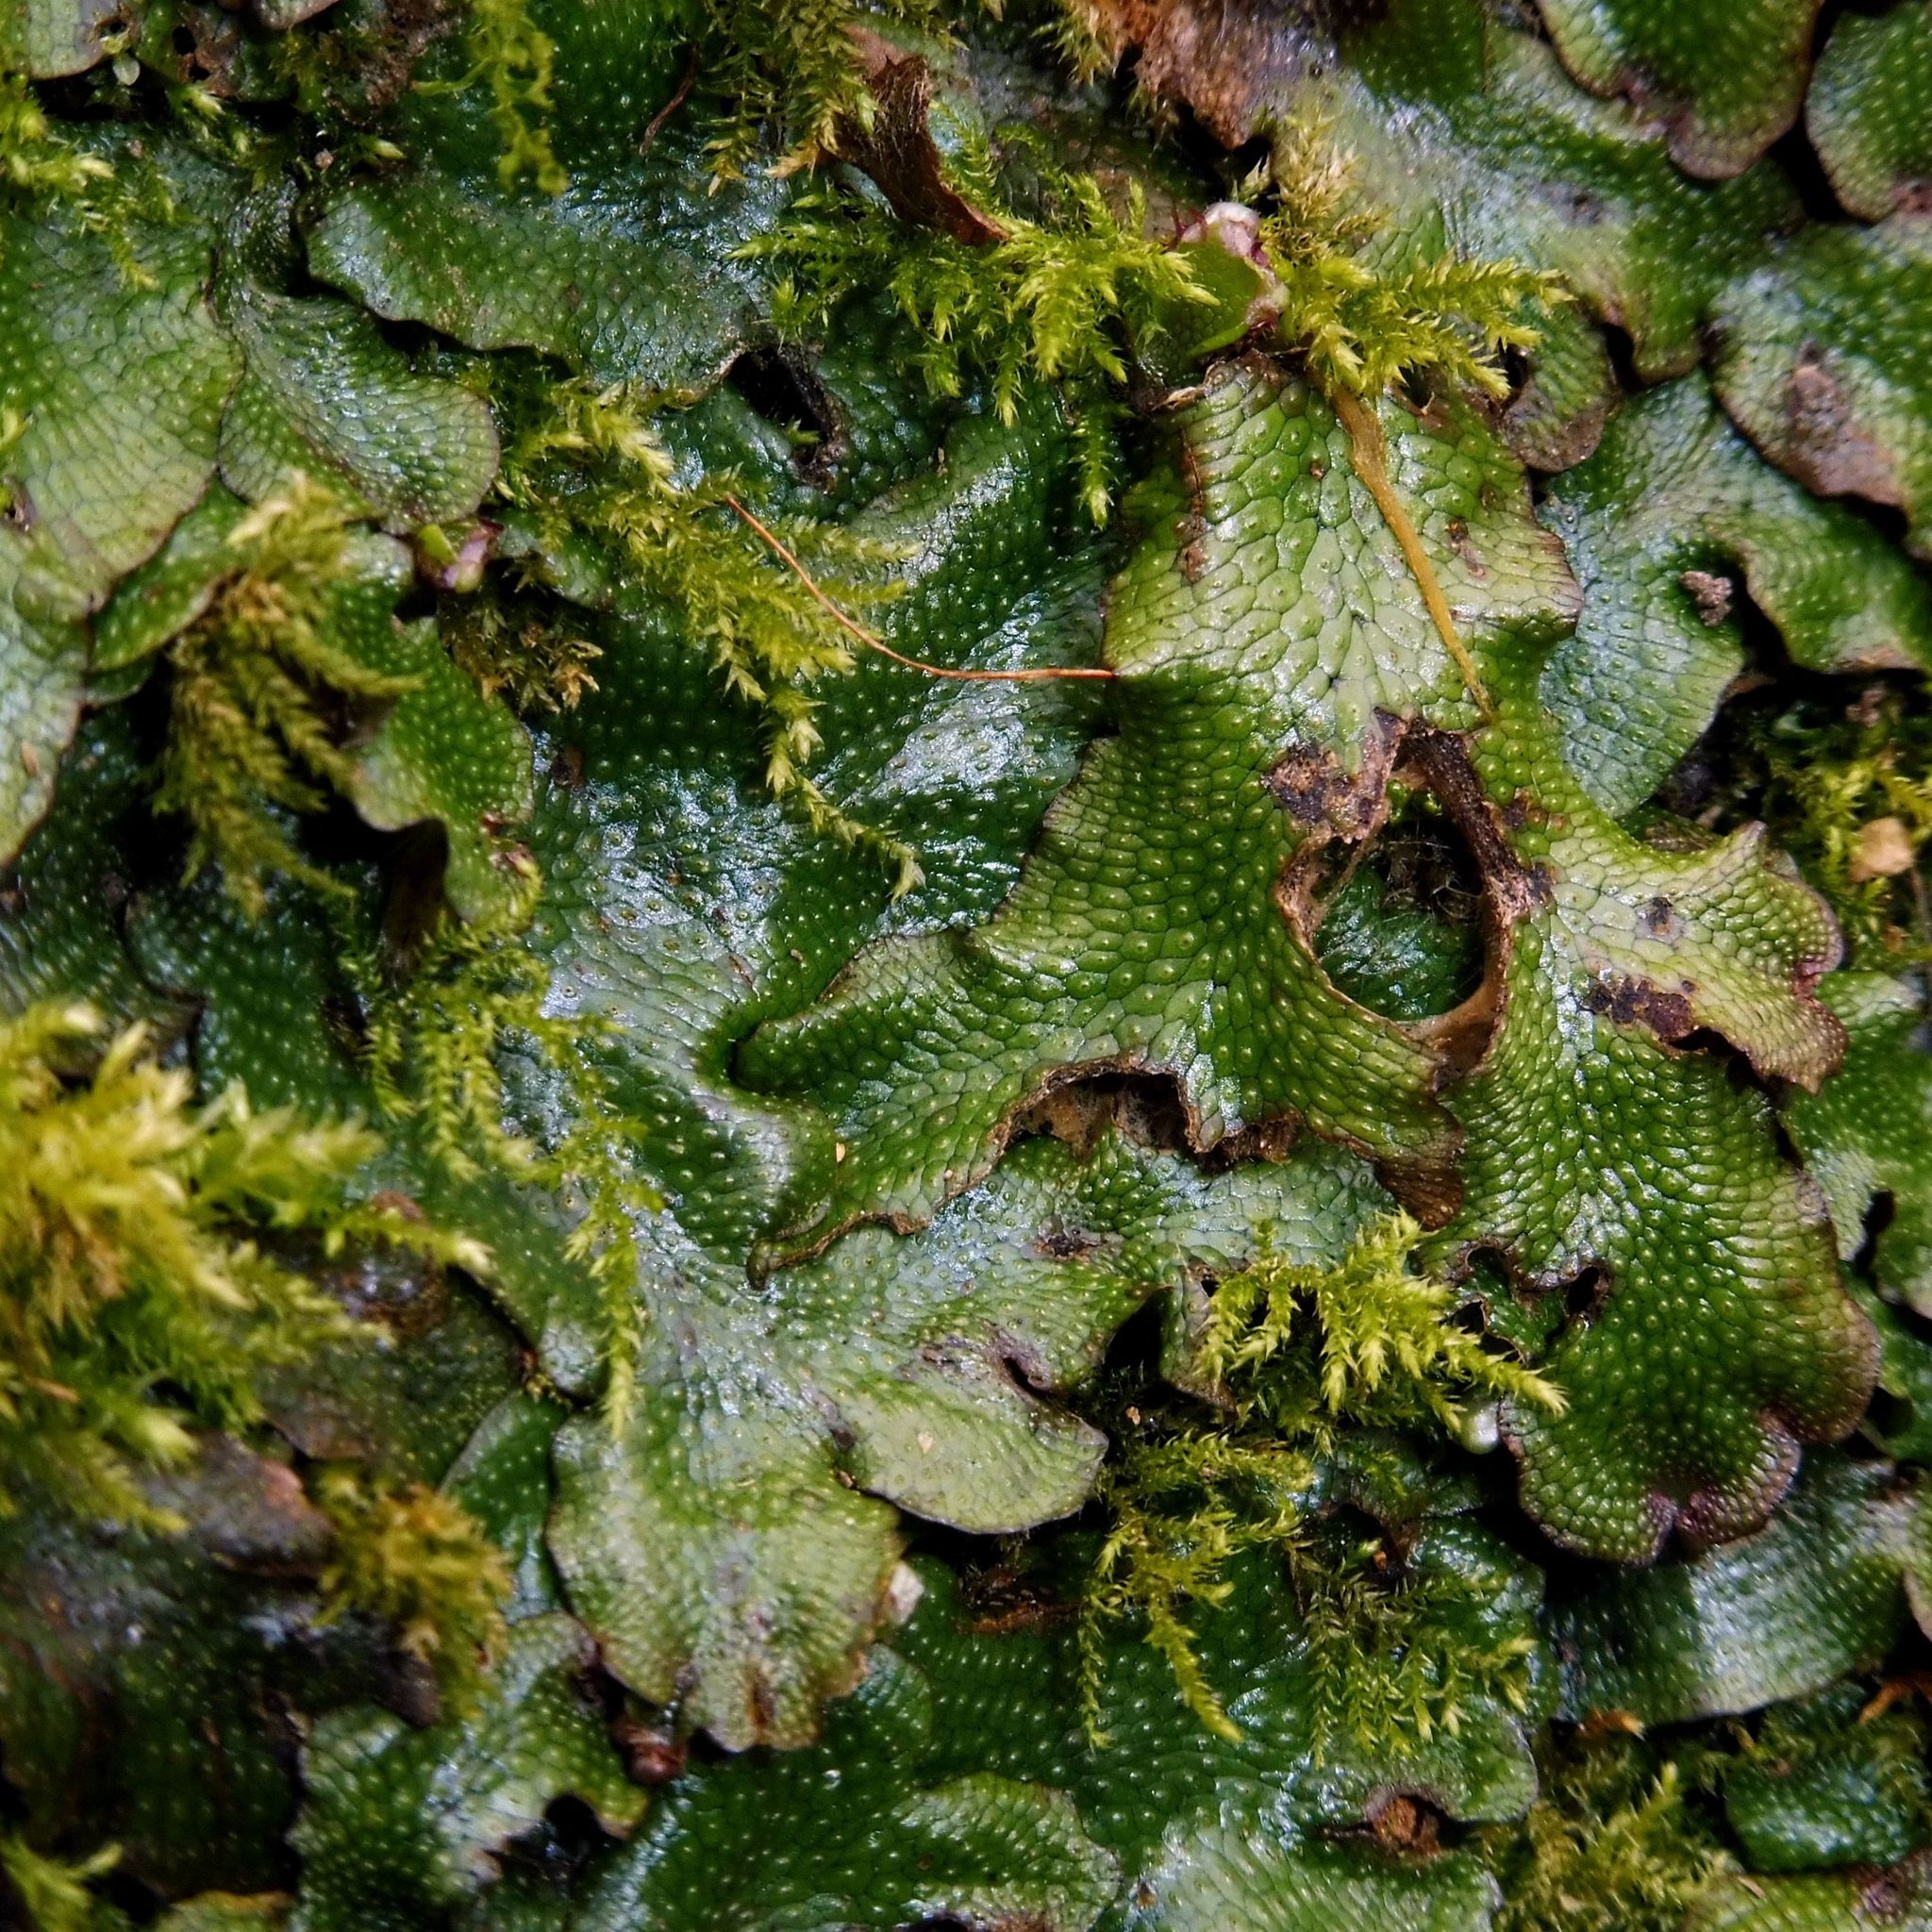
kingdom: Plantae
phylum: Marchantiophyta
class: Marchantiopsida
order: Marchantiales
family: Conocephalaceae
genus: Conocephalum
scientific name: Conocephalum conicum
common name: Great scented liverwort
